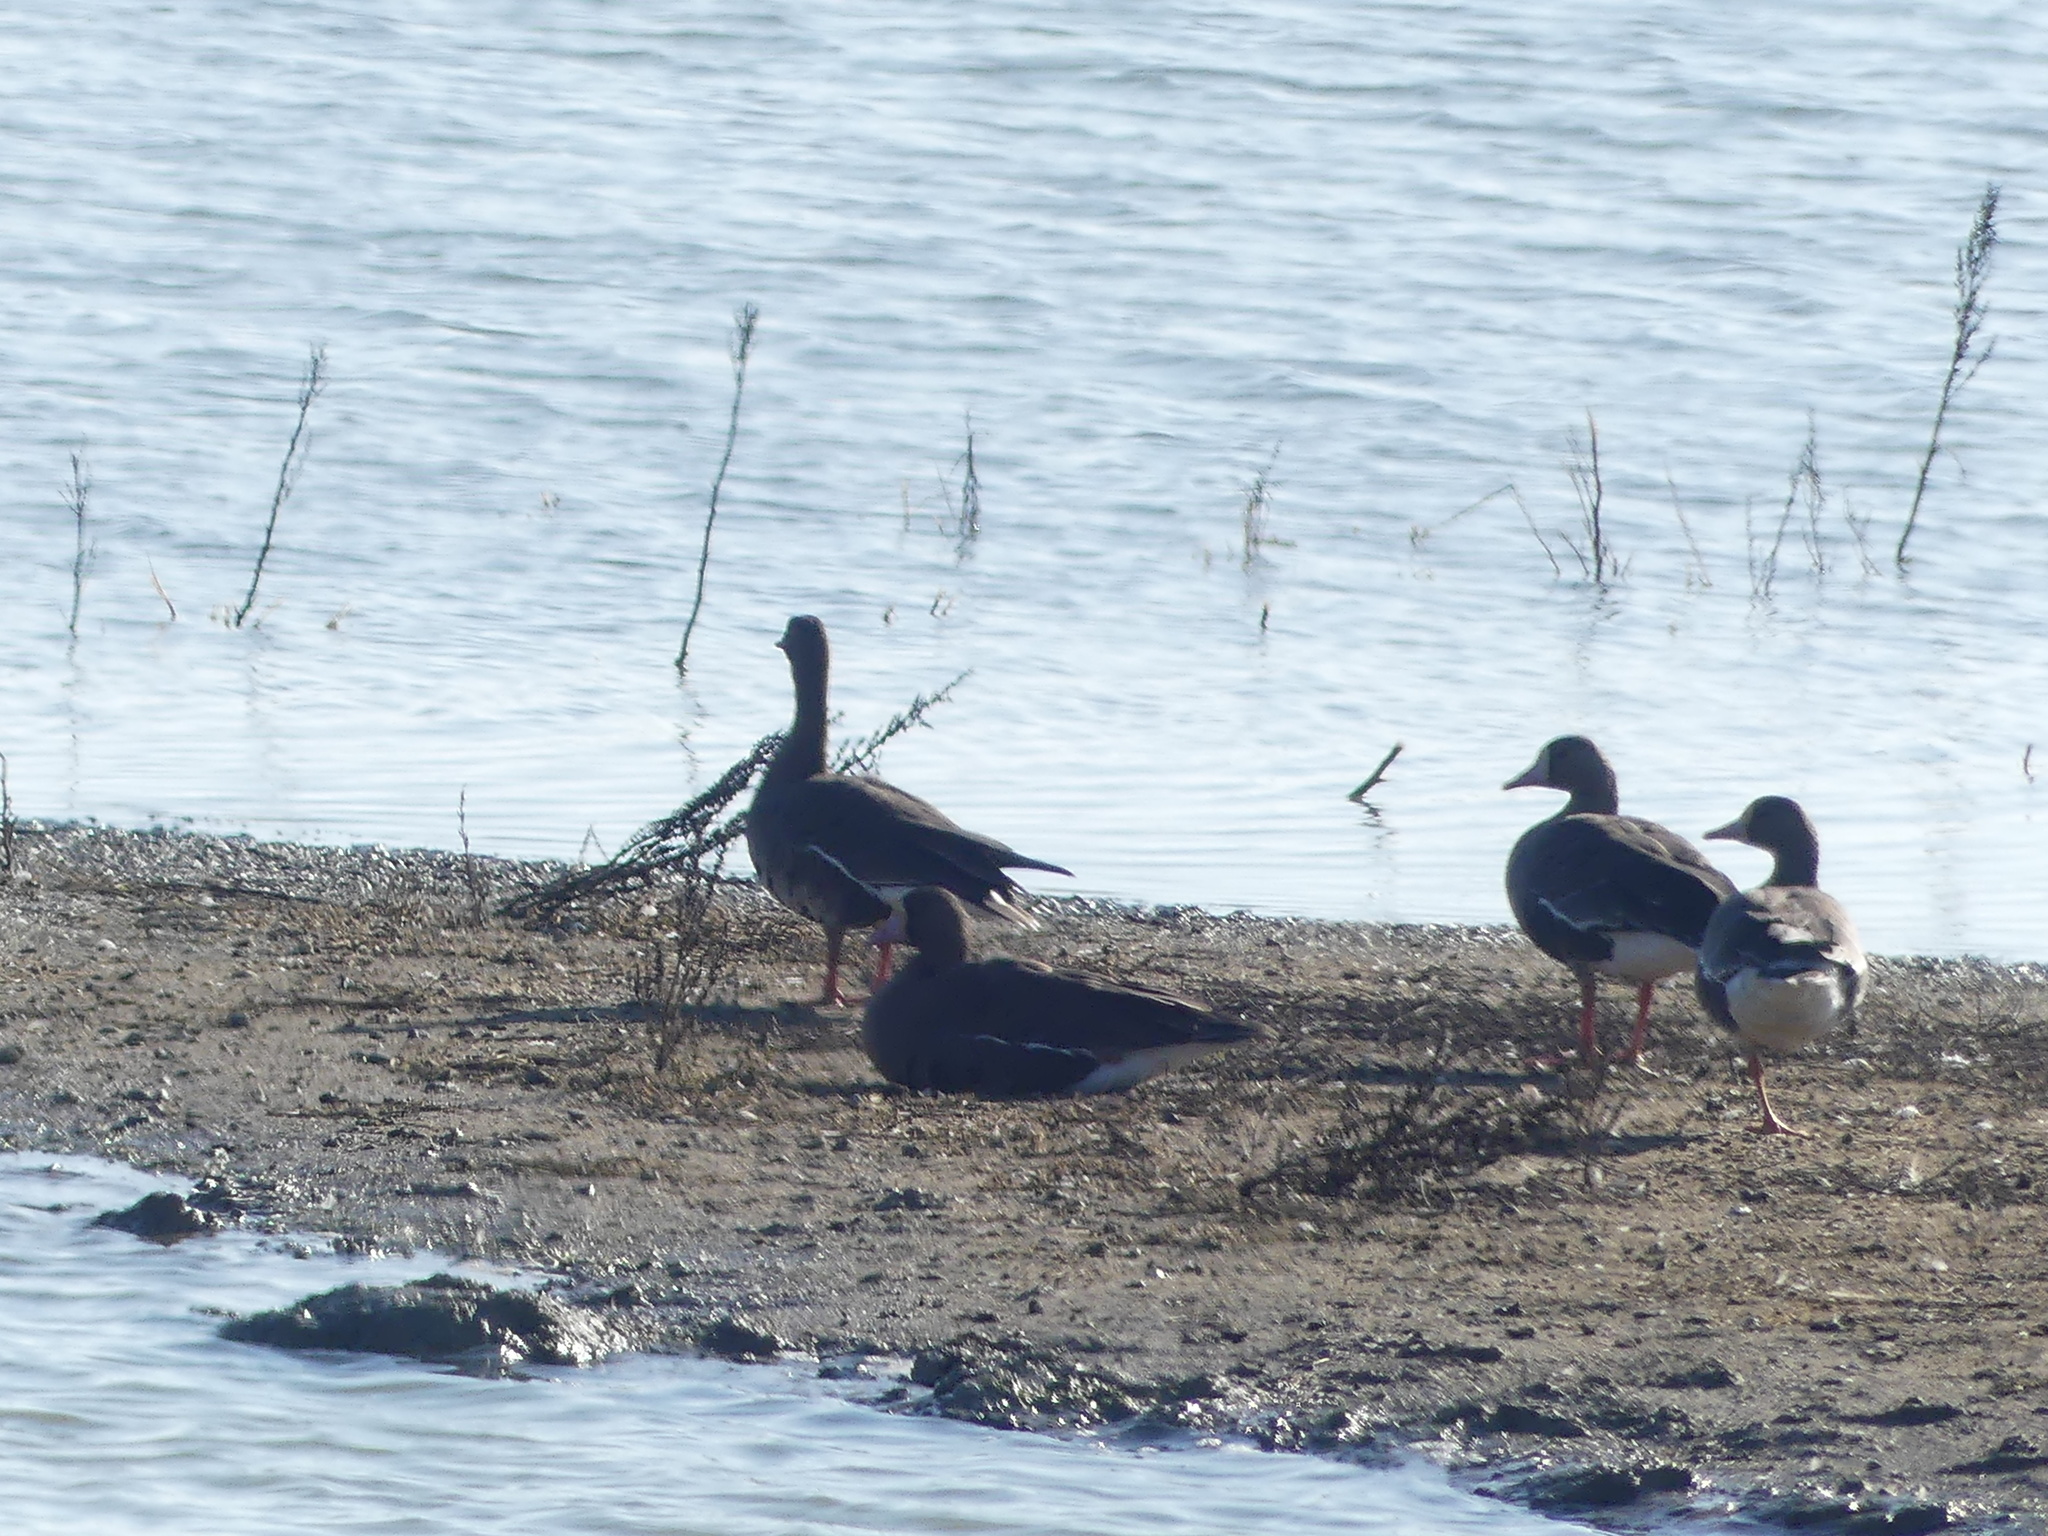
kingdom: Animalia
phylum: Chordata
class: Aves
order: Anseriformes
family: Anatidae
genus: Anser
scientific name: Anser albifrons
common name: Greater white-fronted goose
